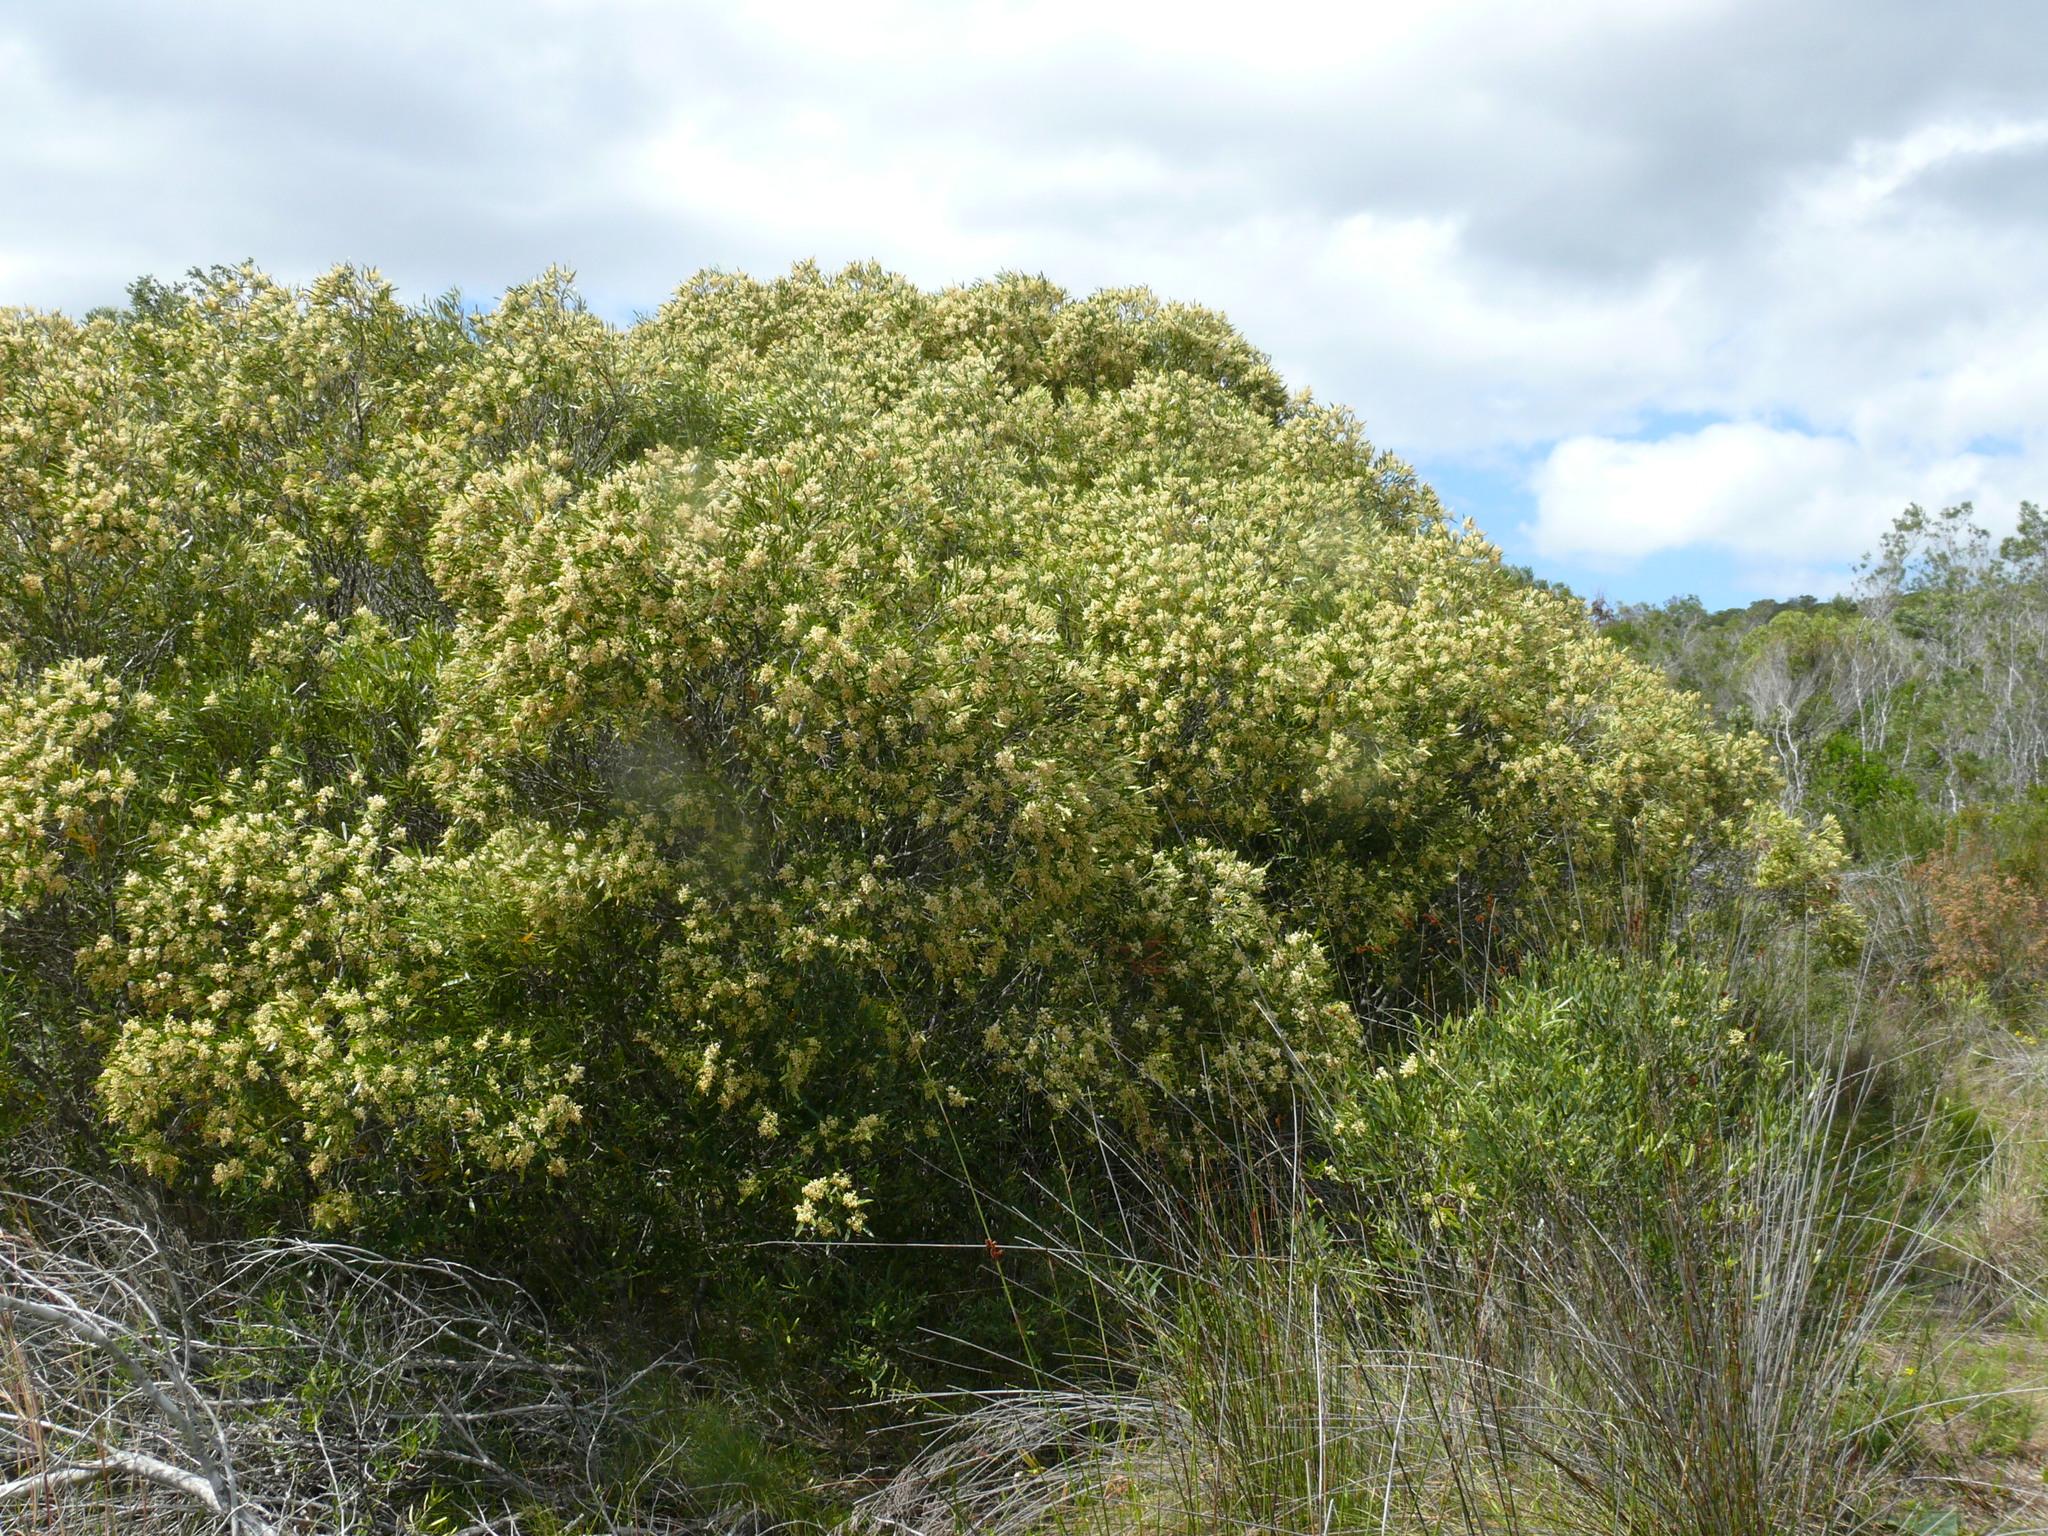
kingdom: Plantae
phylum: Tracheophyta
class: Magnoliopsida
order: Lamiales
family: Oleaceae
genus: Olea
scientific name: Olea europaea
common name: Olive
